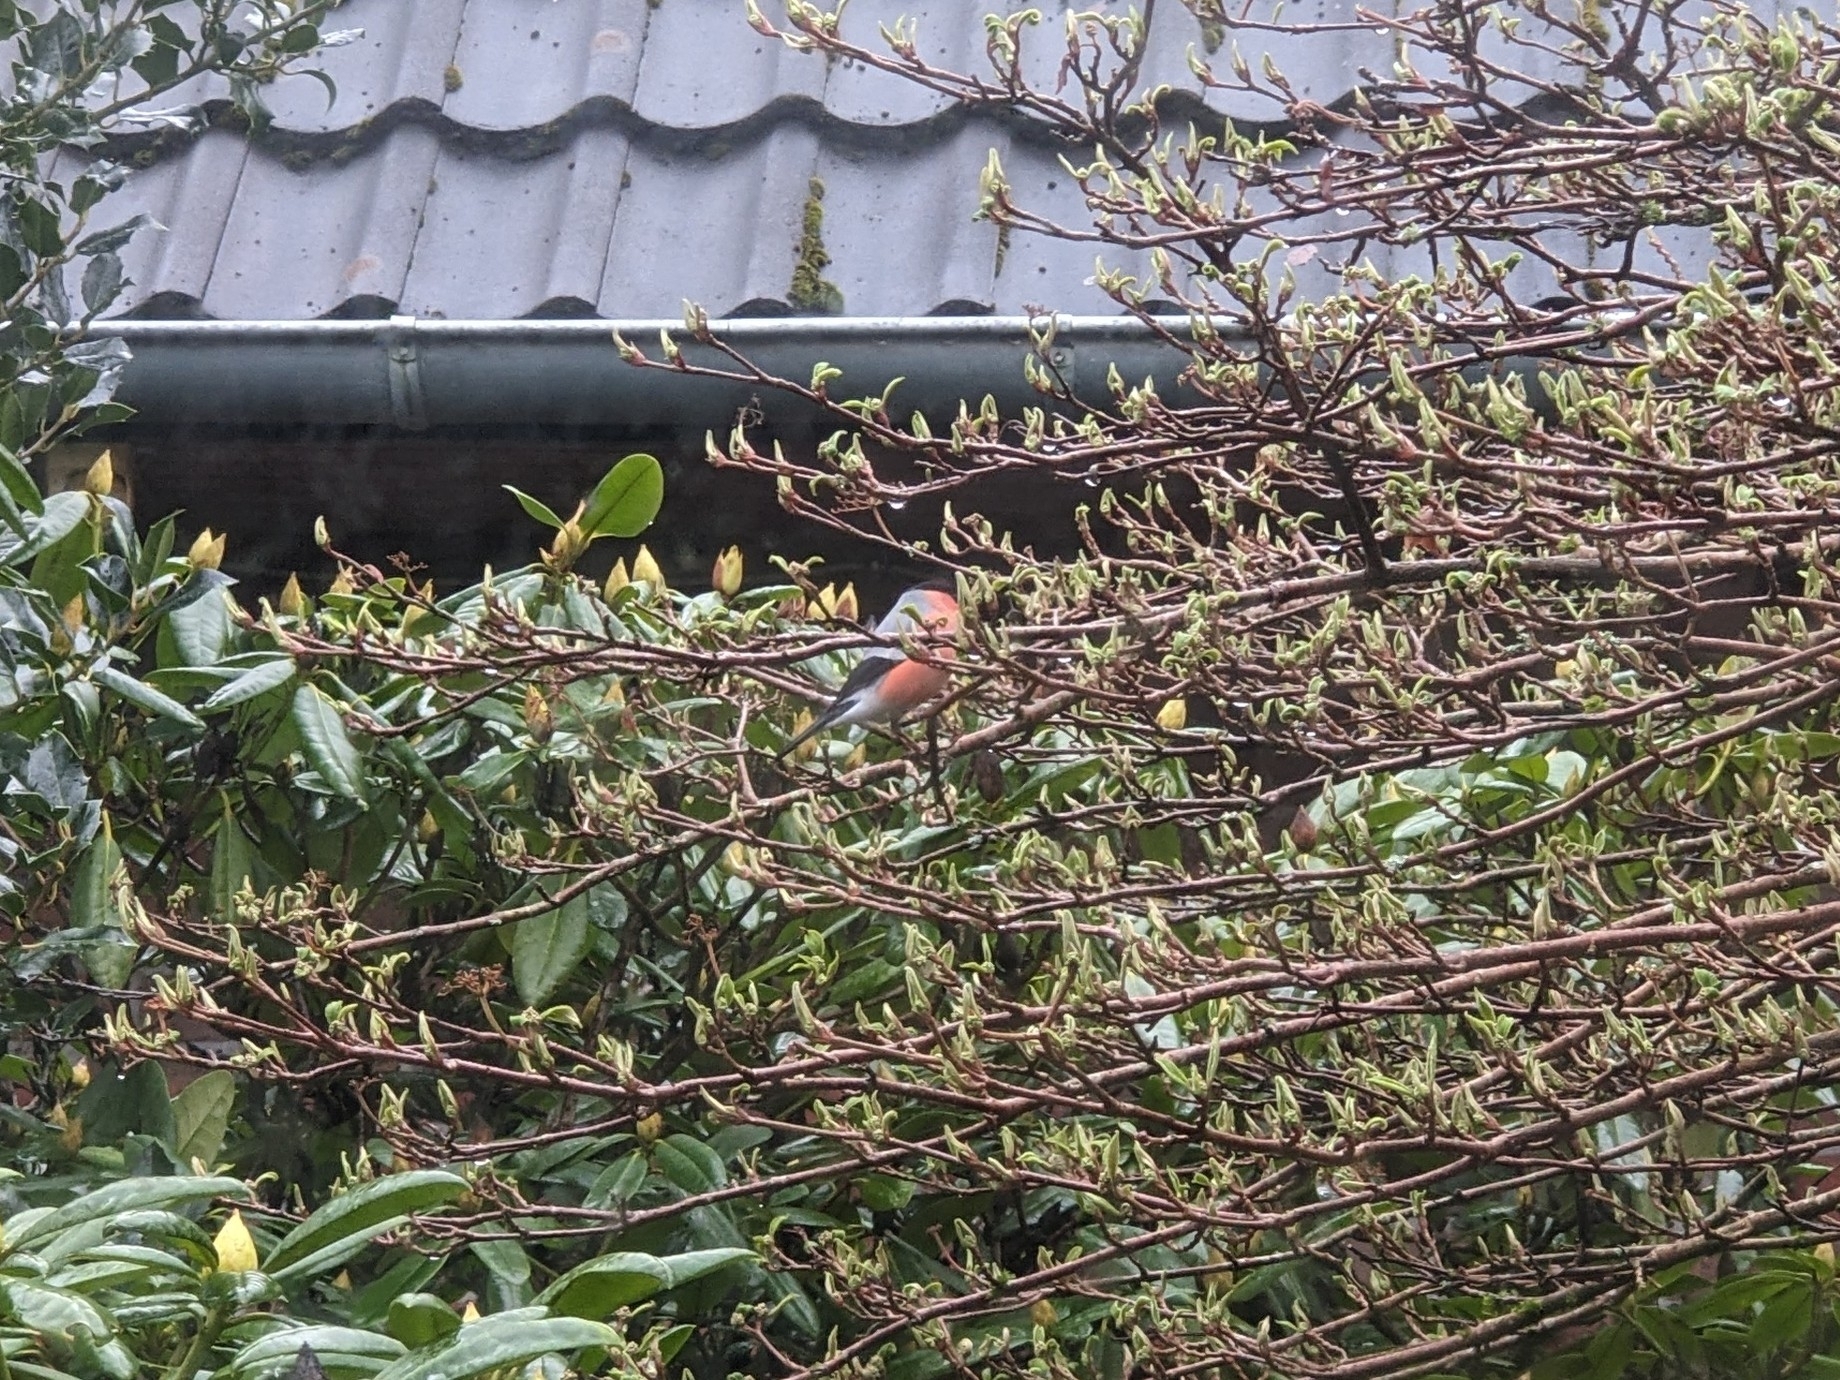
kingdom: Animalia
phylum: Chordata
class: Aves
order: Passeriformes
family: Fringillidae
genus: Pyrrhula
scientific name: Pyrrhula pyrrhula
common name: Eurasian bullfinch
